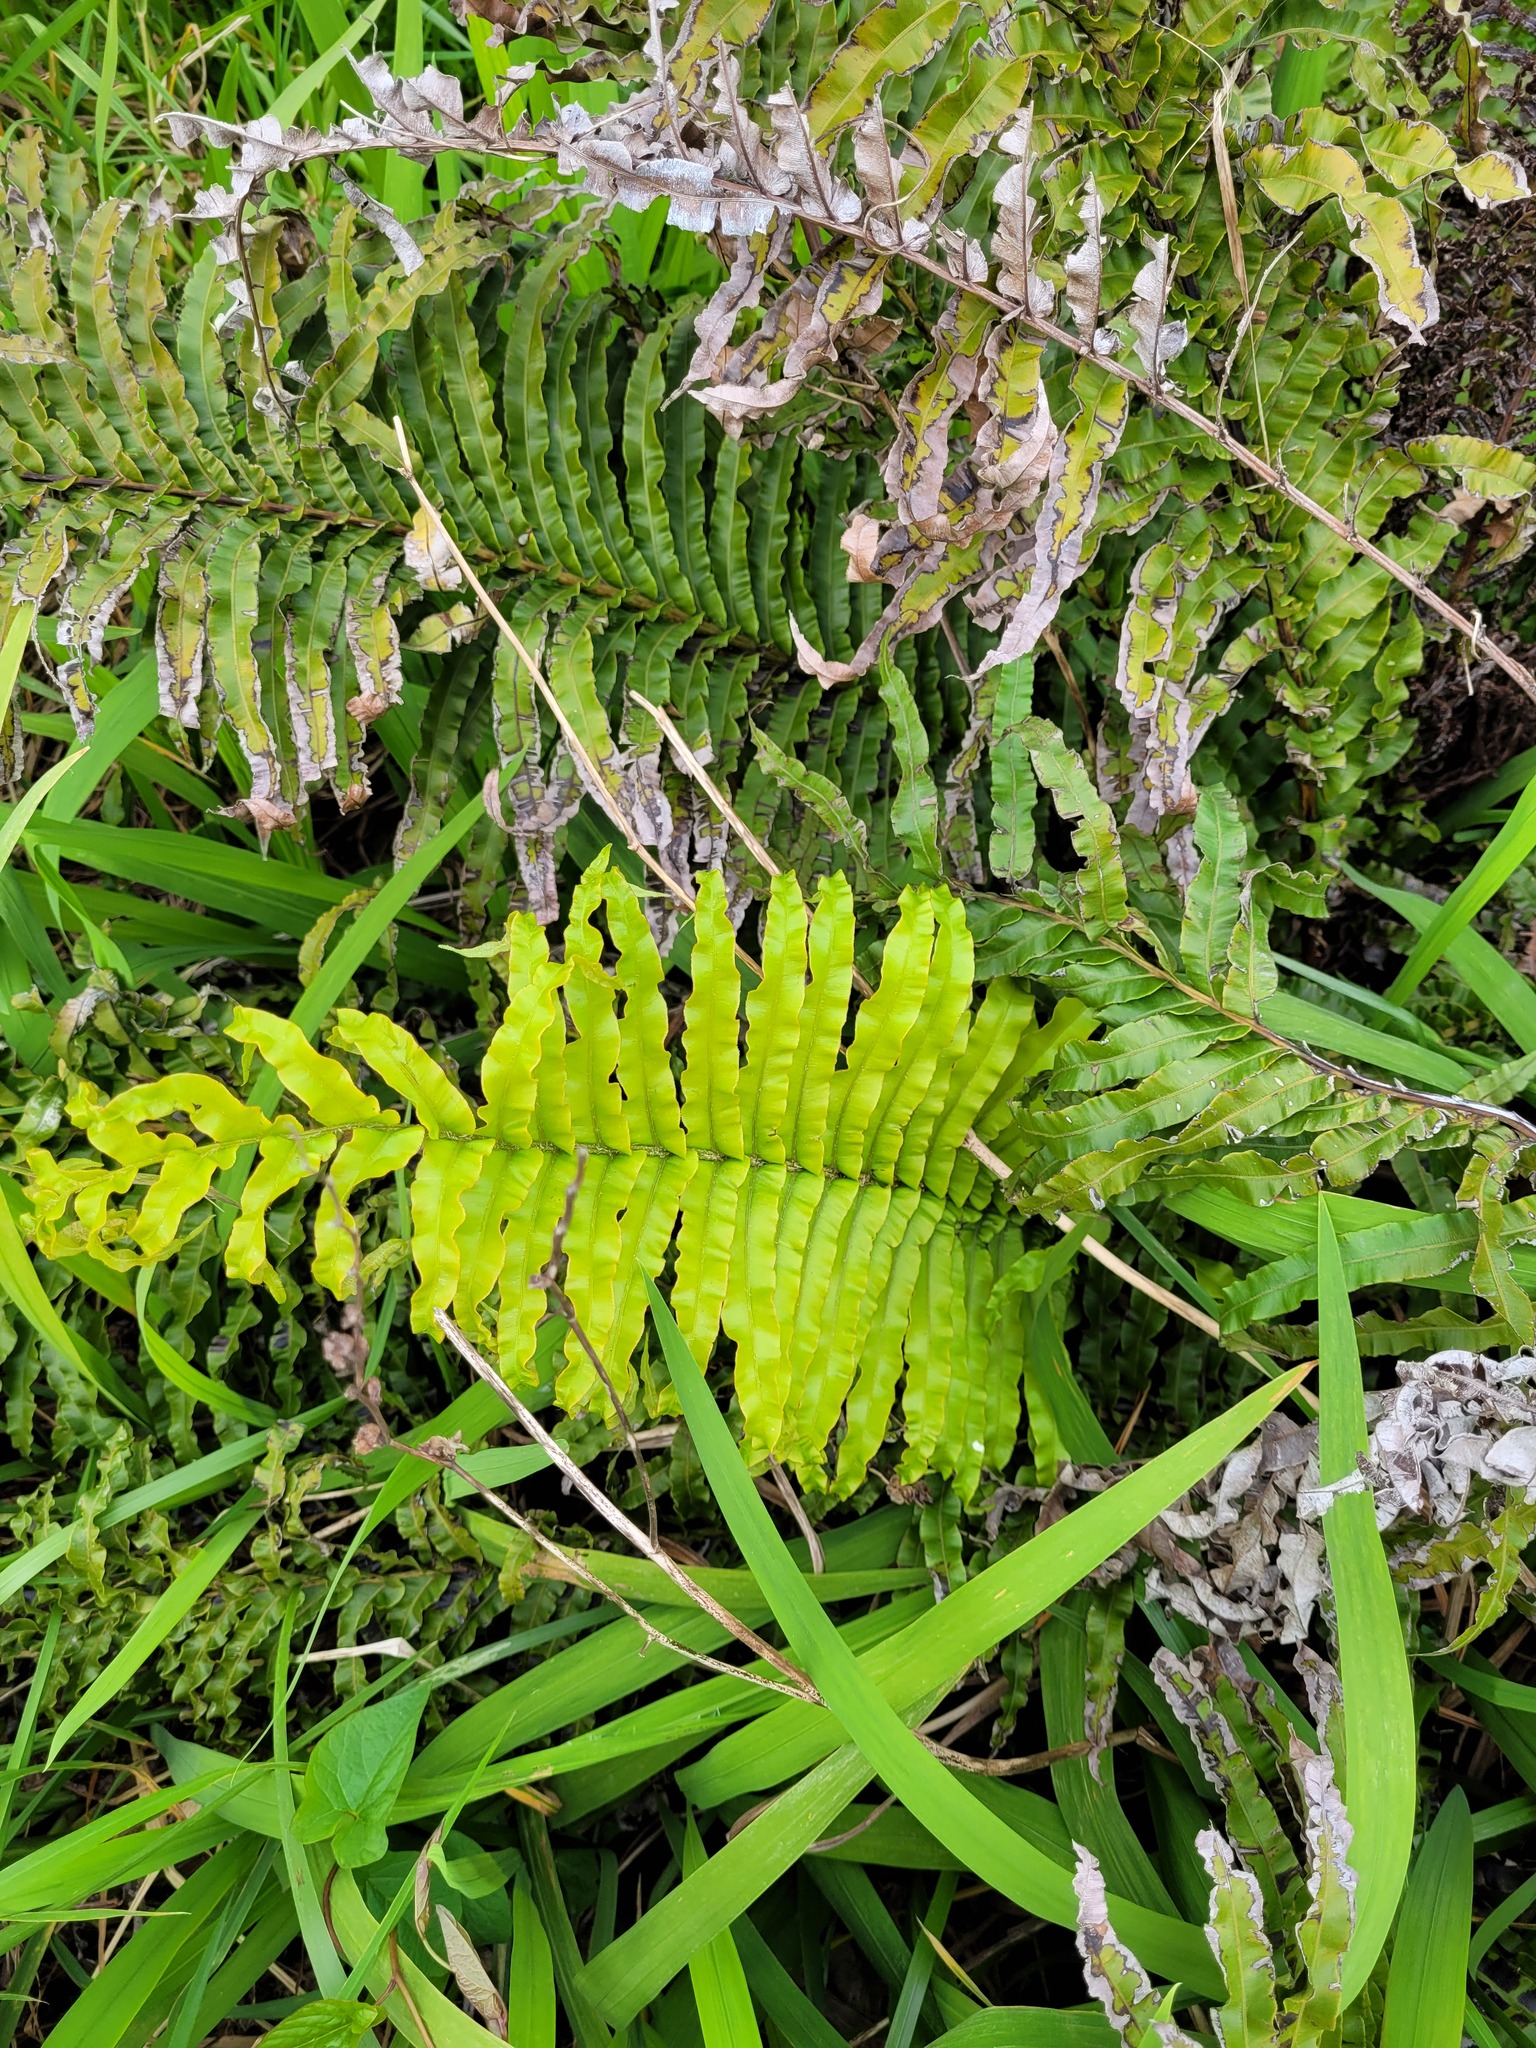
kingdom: Plantae
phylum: Tracheophyta
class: Polypodiopsida
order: Polypodiales
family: Blechnaceae
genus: Parablechnum
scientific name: Parablechnum novae-zelandiae
